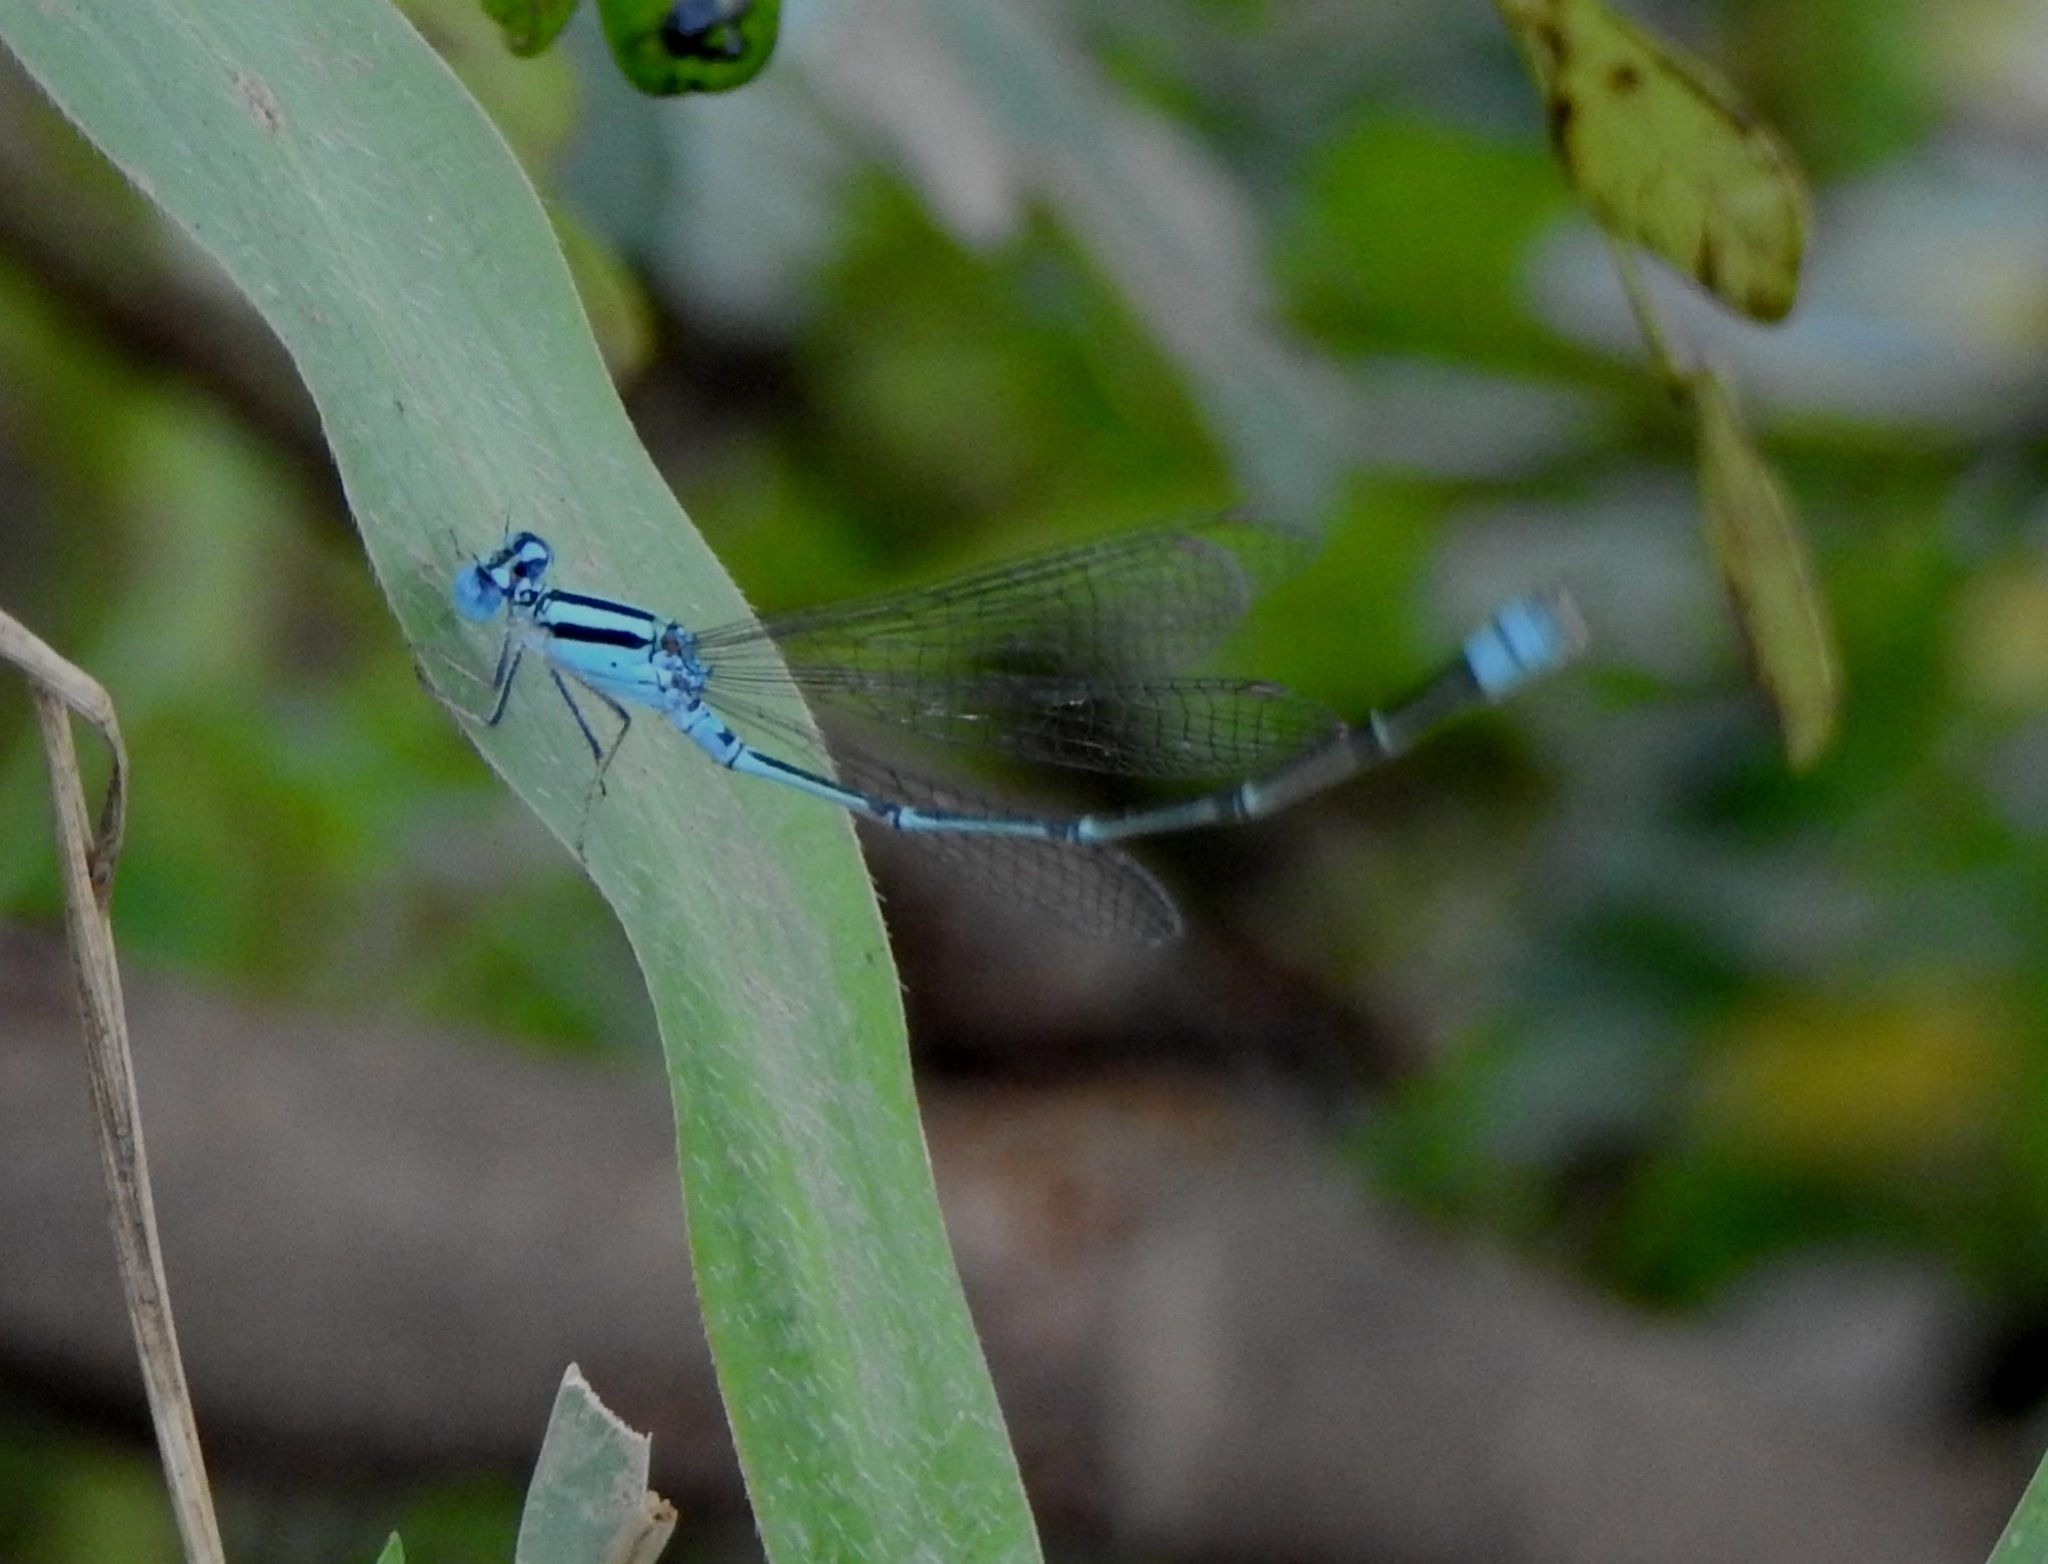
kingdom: Animalia
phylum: Arthropoda
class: Insecta
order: Odonata
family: Coenagrionidae
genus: Pseudagrion
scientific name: Pseudagrion microcephalum
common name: Blue riverdamsel
